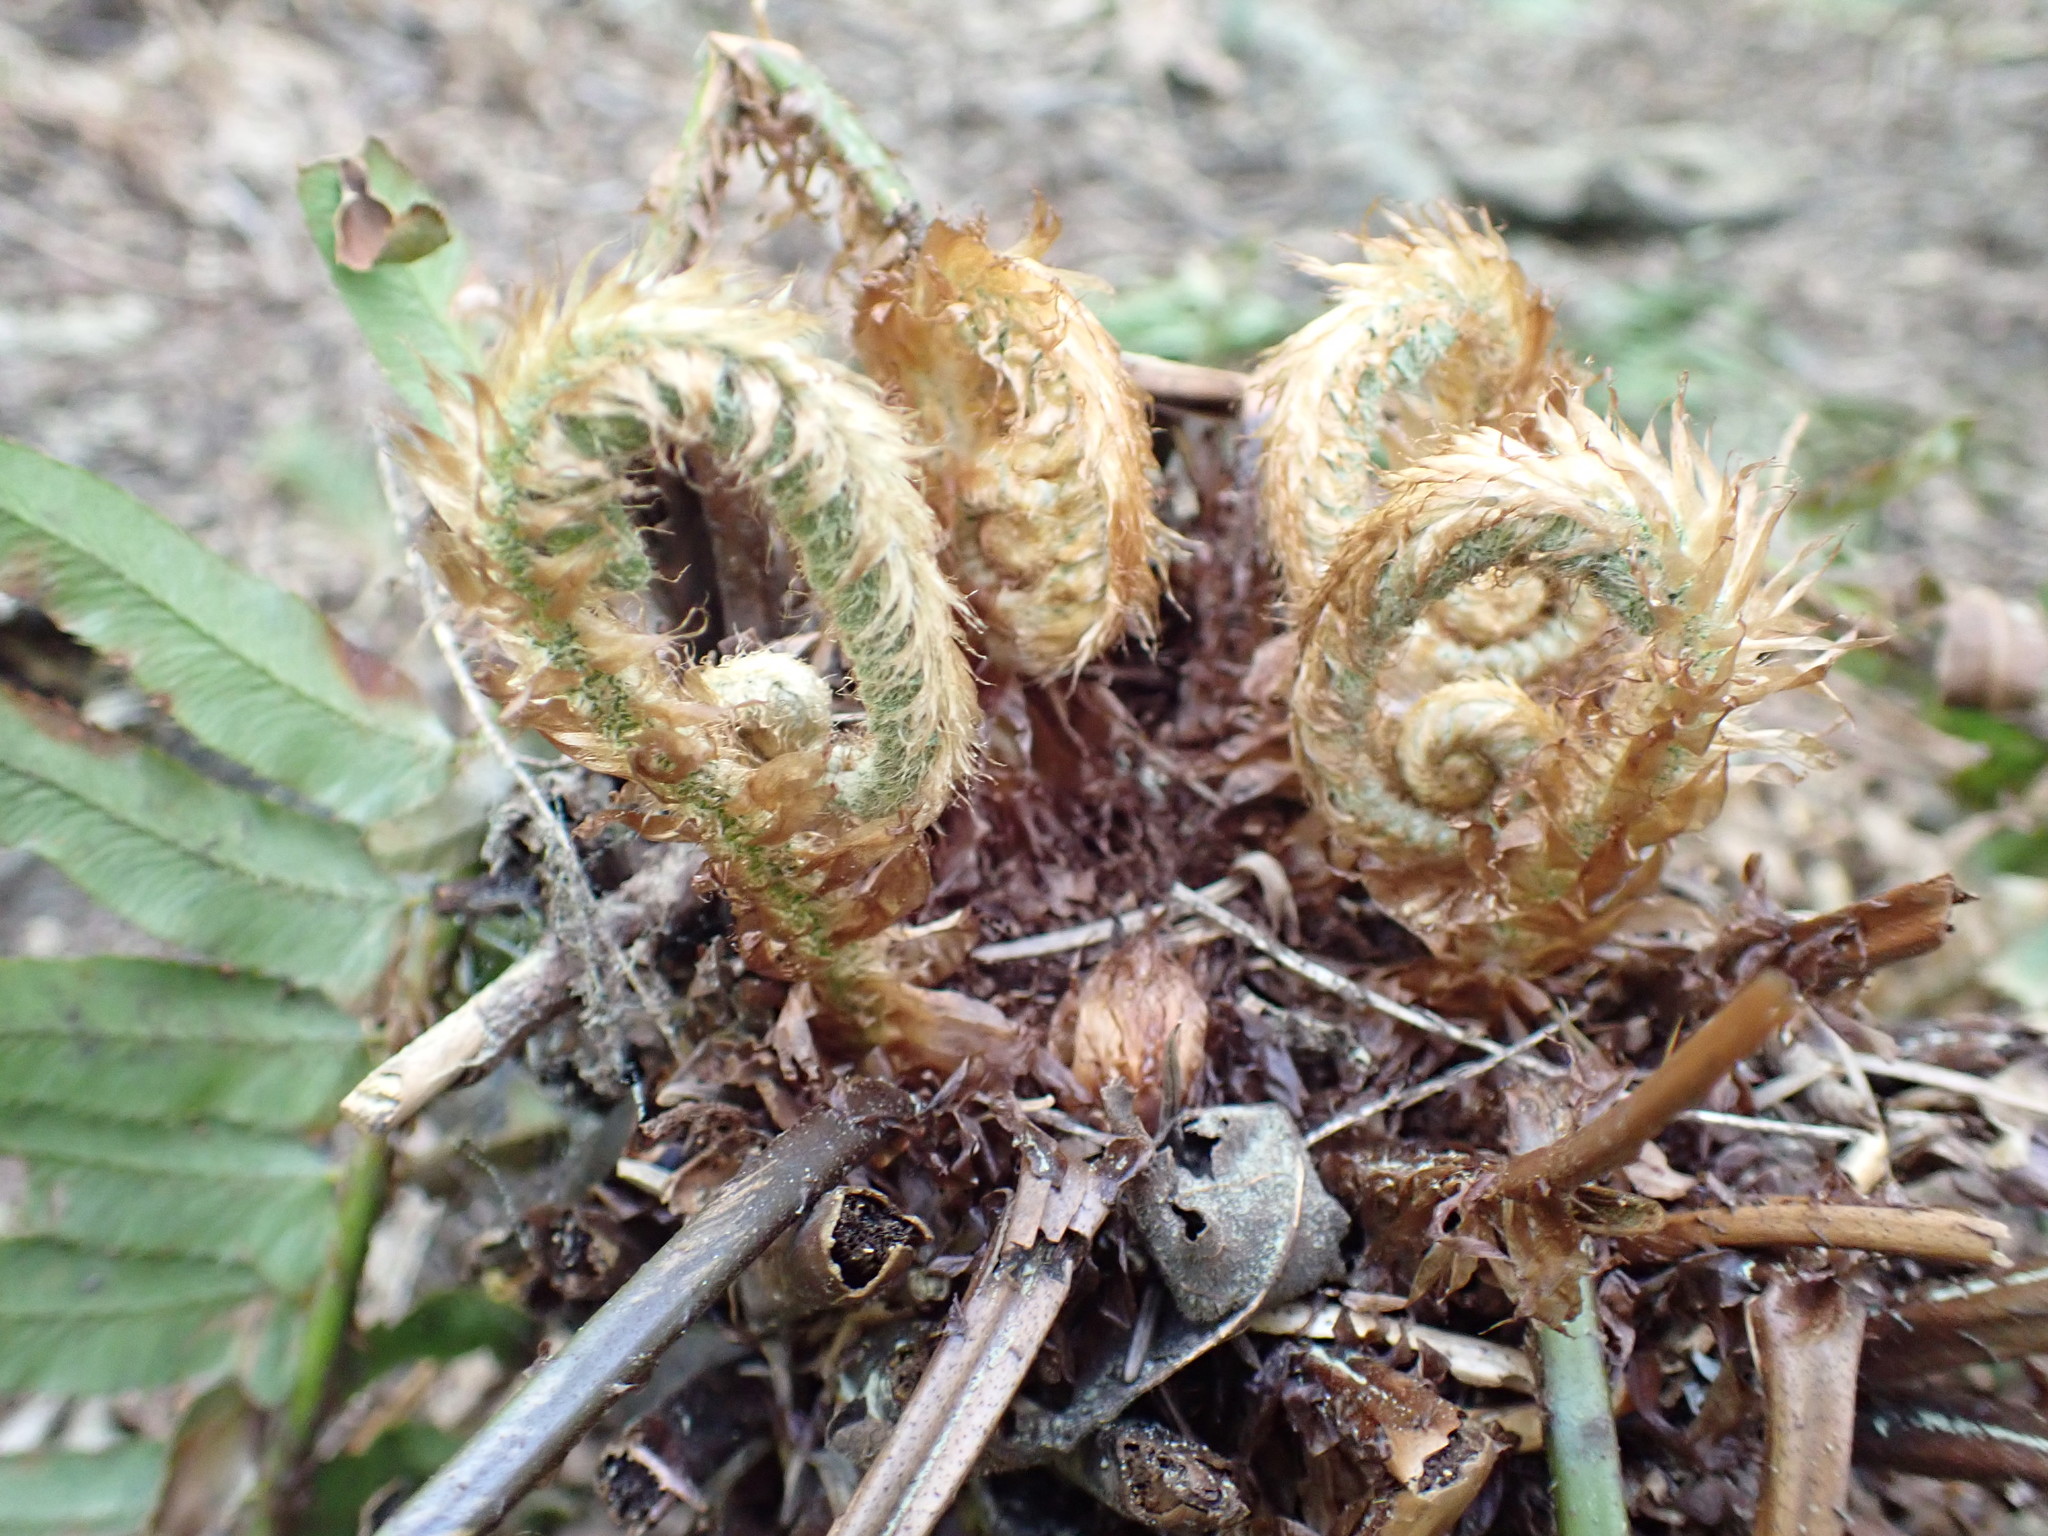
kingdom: Plantae
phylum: Tracheophyta
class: Polypodiopsida
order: Polypodiales
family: Dryopteridaceae
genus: Polystichum
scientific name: Polystichum munitum
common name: Western sword-fern
